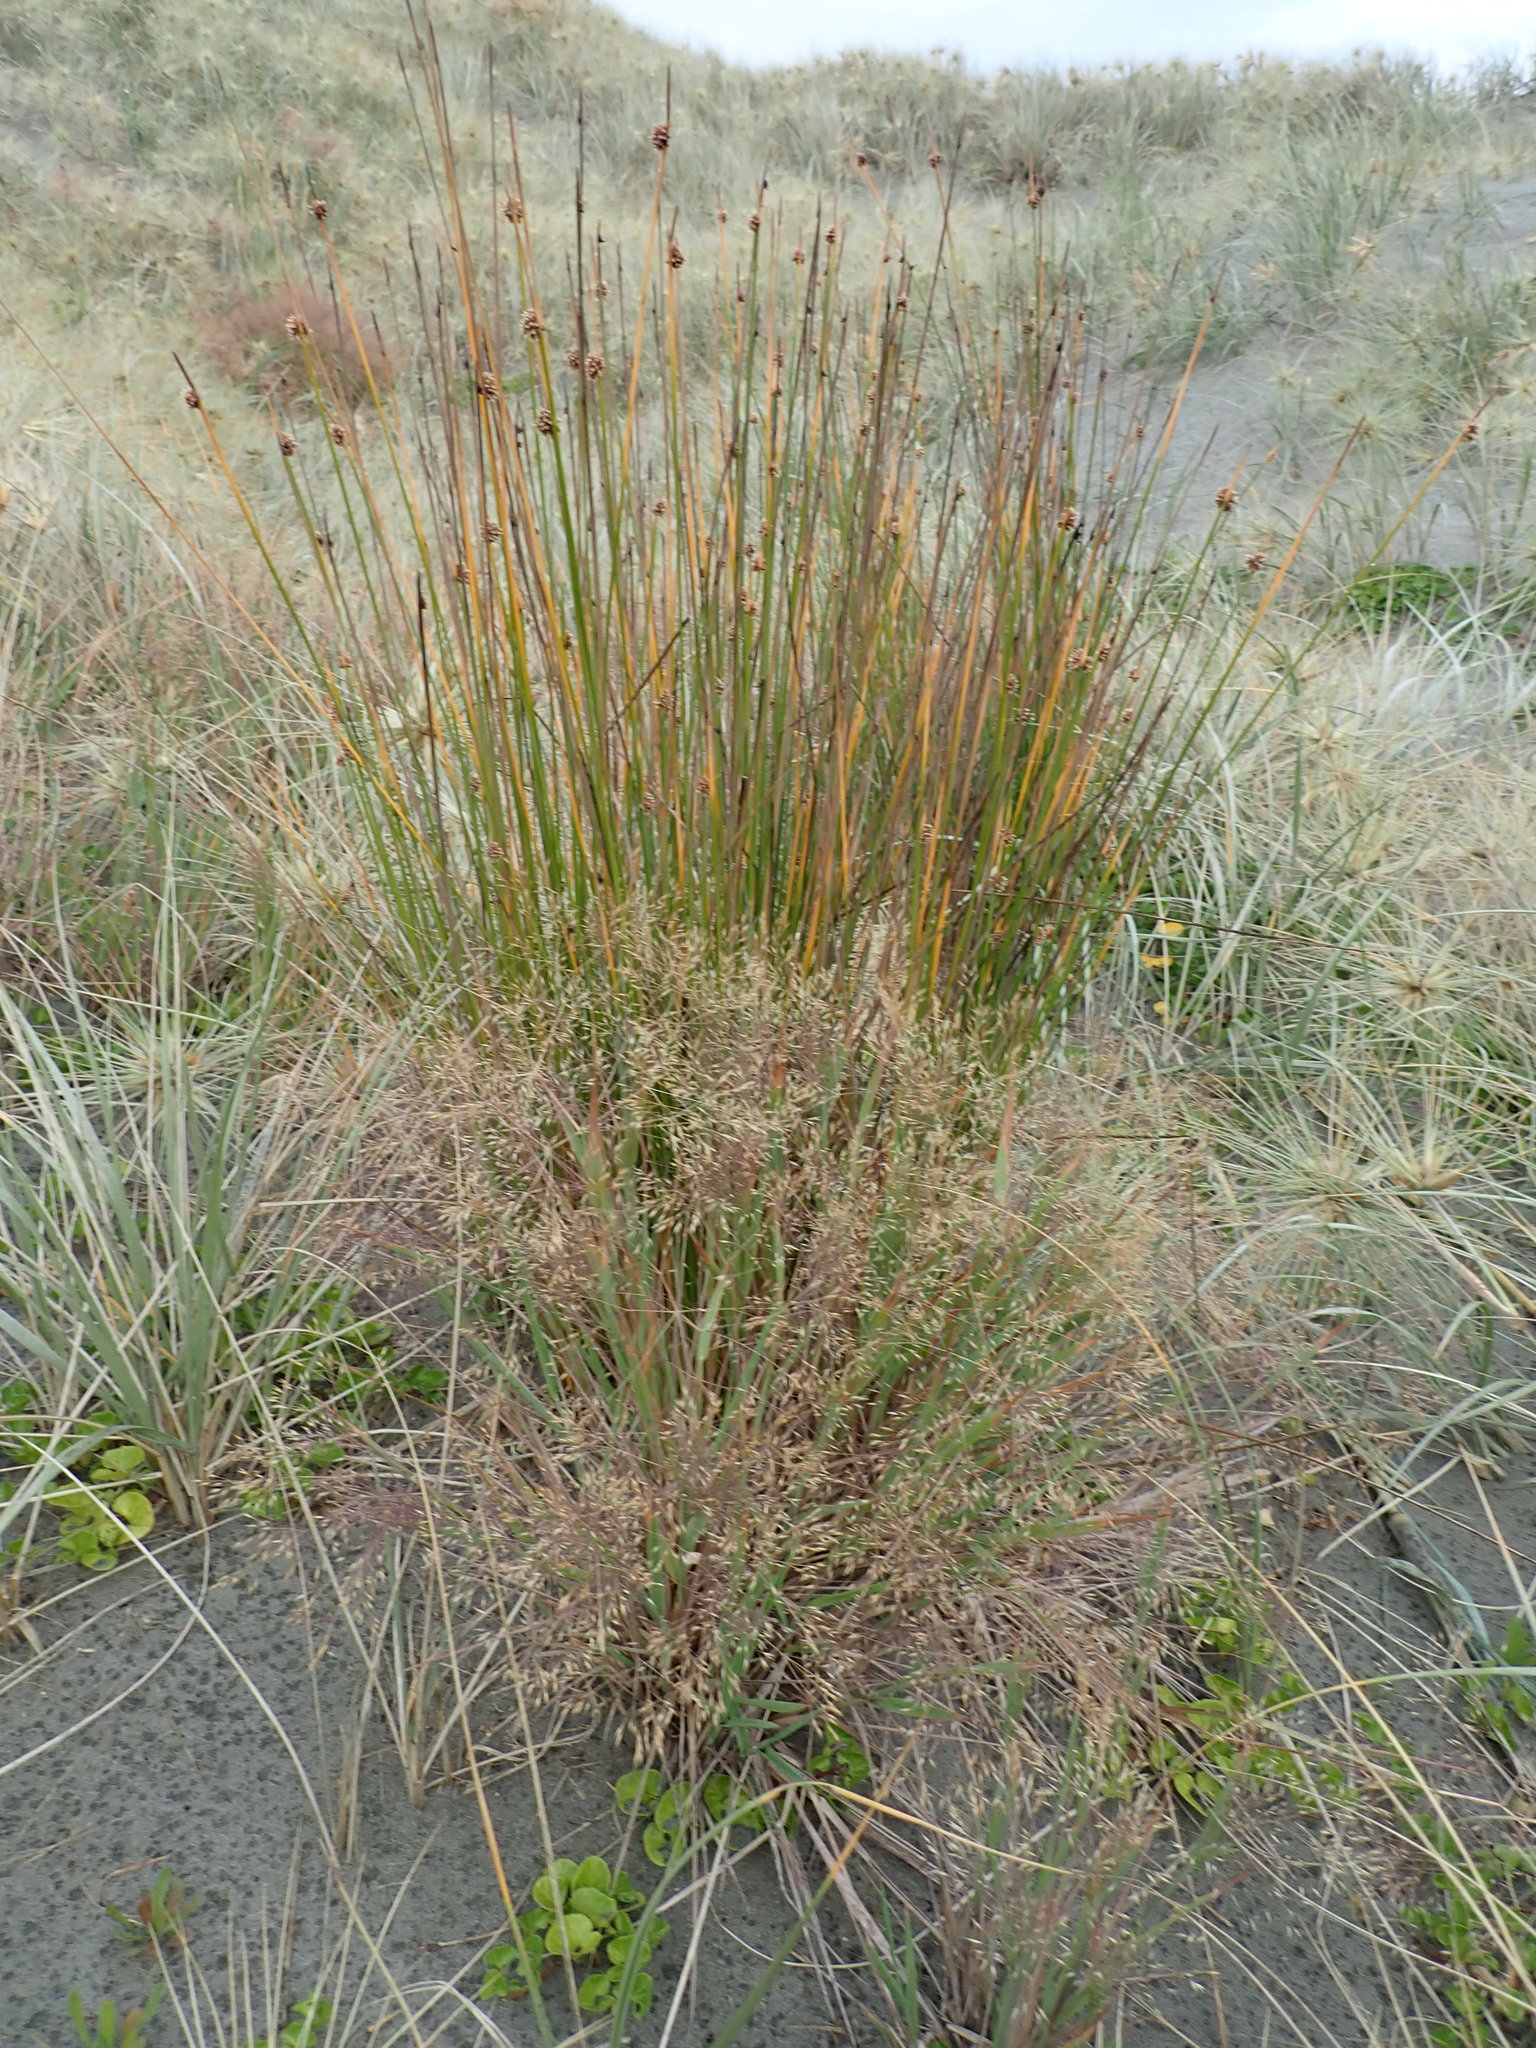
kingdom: Plantae
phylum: Tracheophyta
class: Liliopsida
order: Poales
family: Cyperaceae
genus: Ficinia
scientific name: Ficinia nodosa
